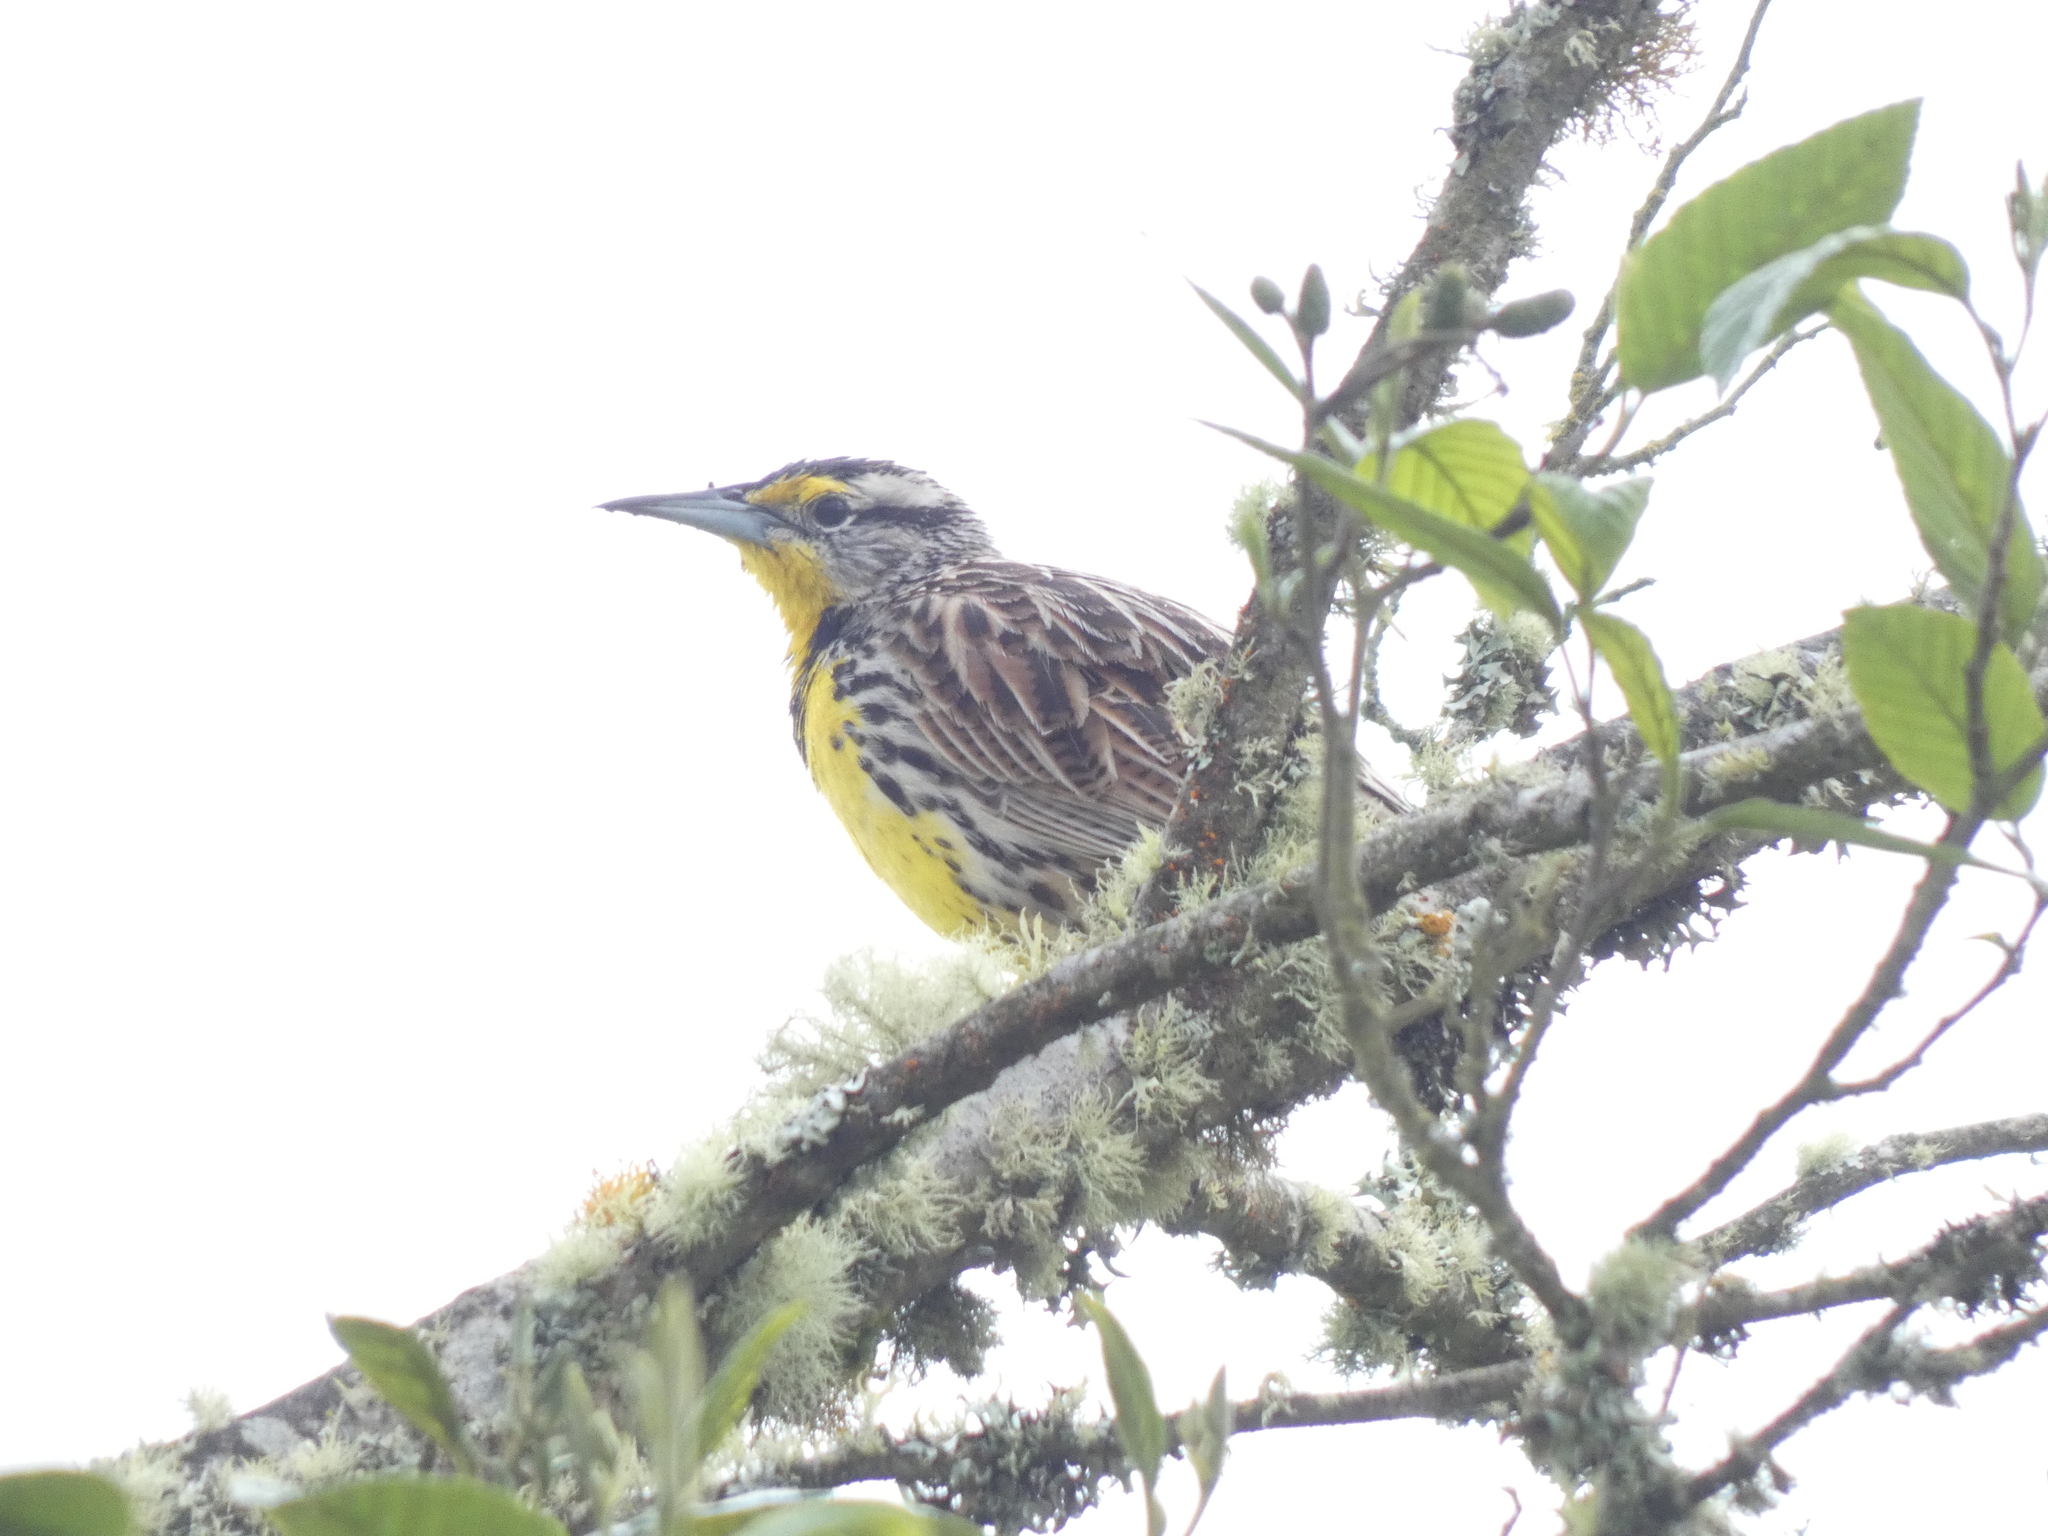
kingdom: Animalia
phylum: Chordata
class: Aves
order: Passeriformes
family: Icteridae
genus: Sturnella
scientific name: Sturnella magna
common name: Eastern meadowlark
